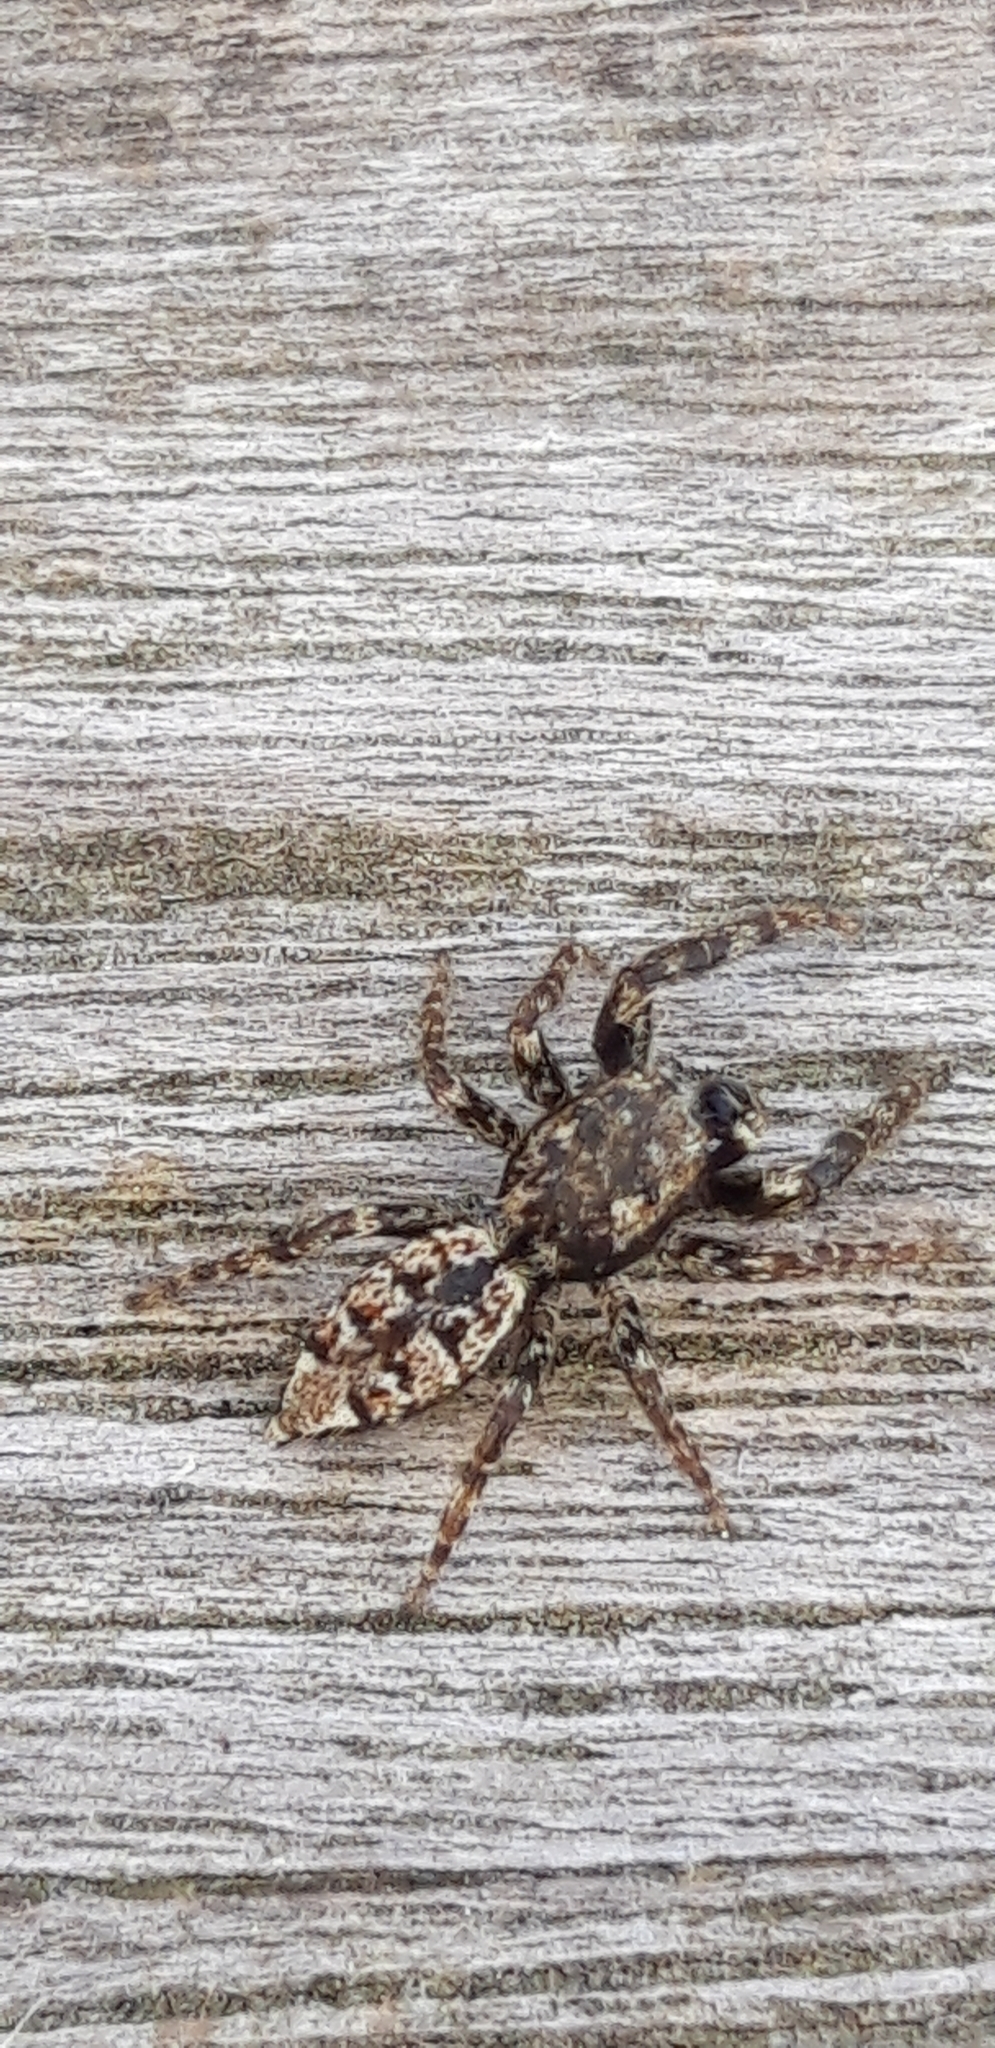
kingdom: Animalia
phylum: Arthropoda
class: Arachnida
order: Araneae
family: Salticidae
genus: Marpissa
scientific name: Marpissa muscosa
